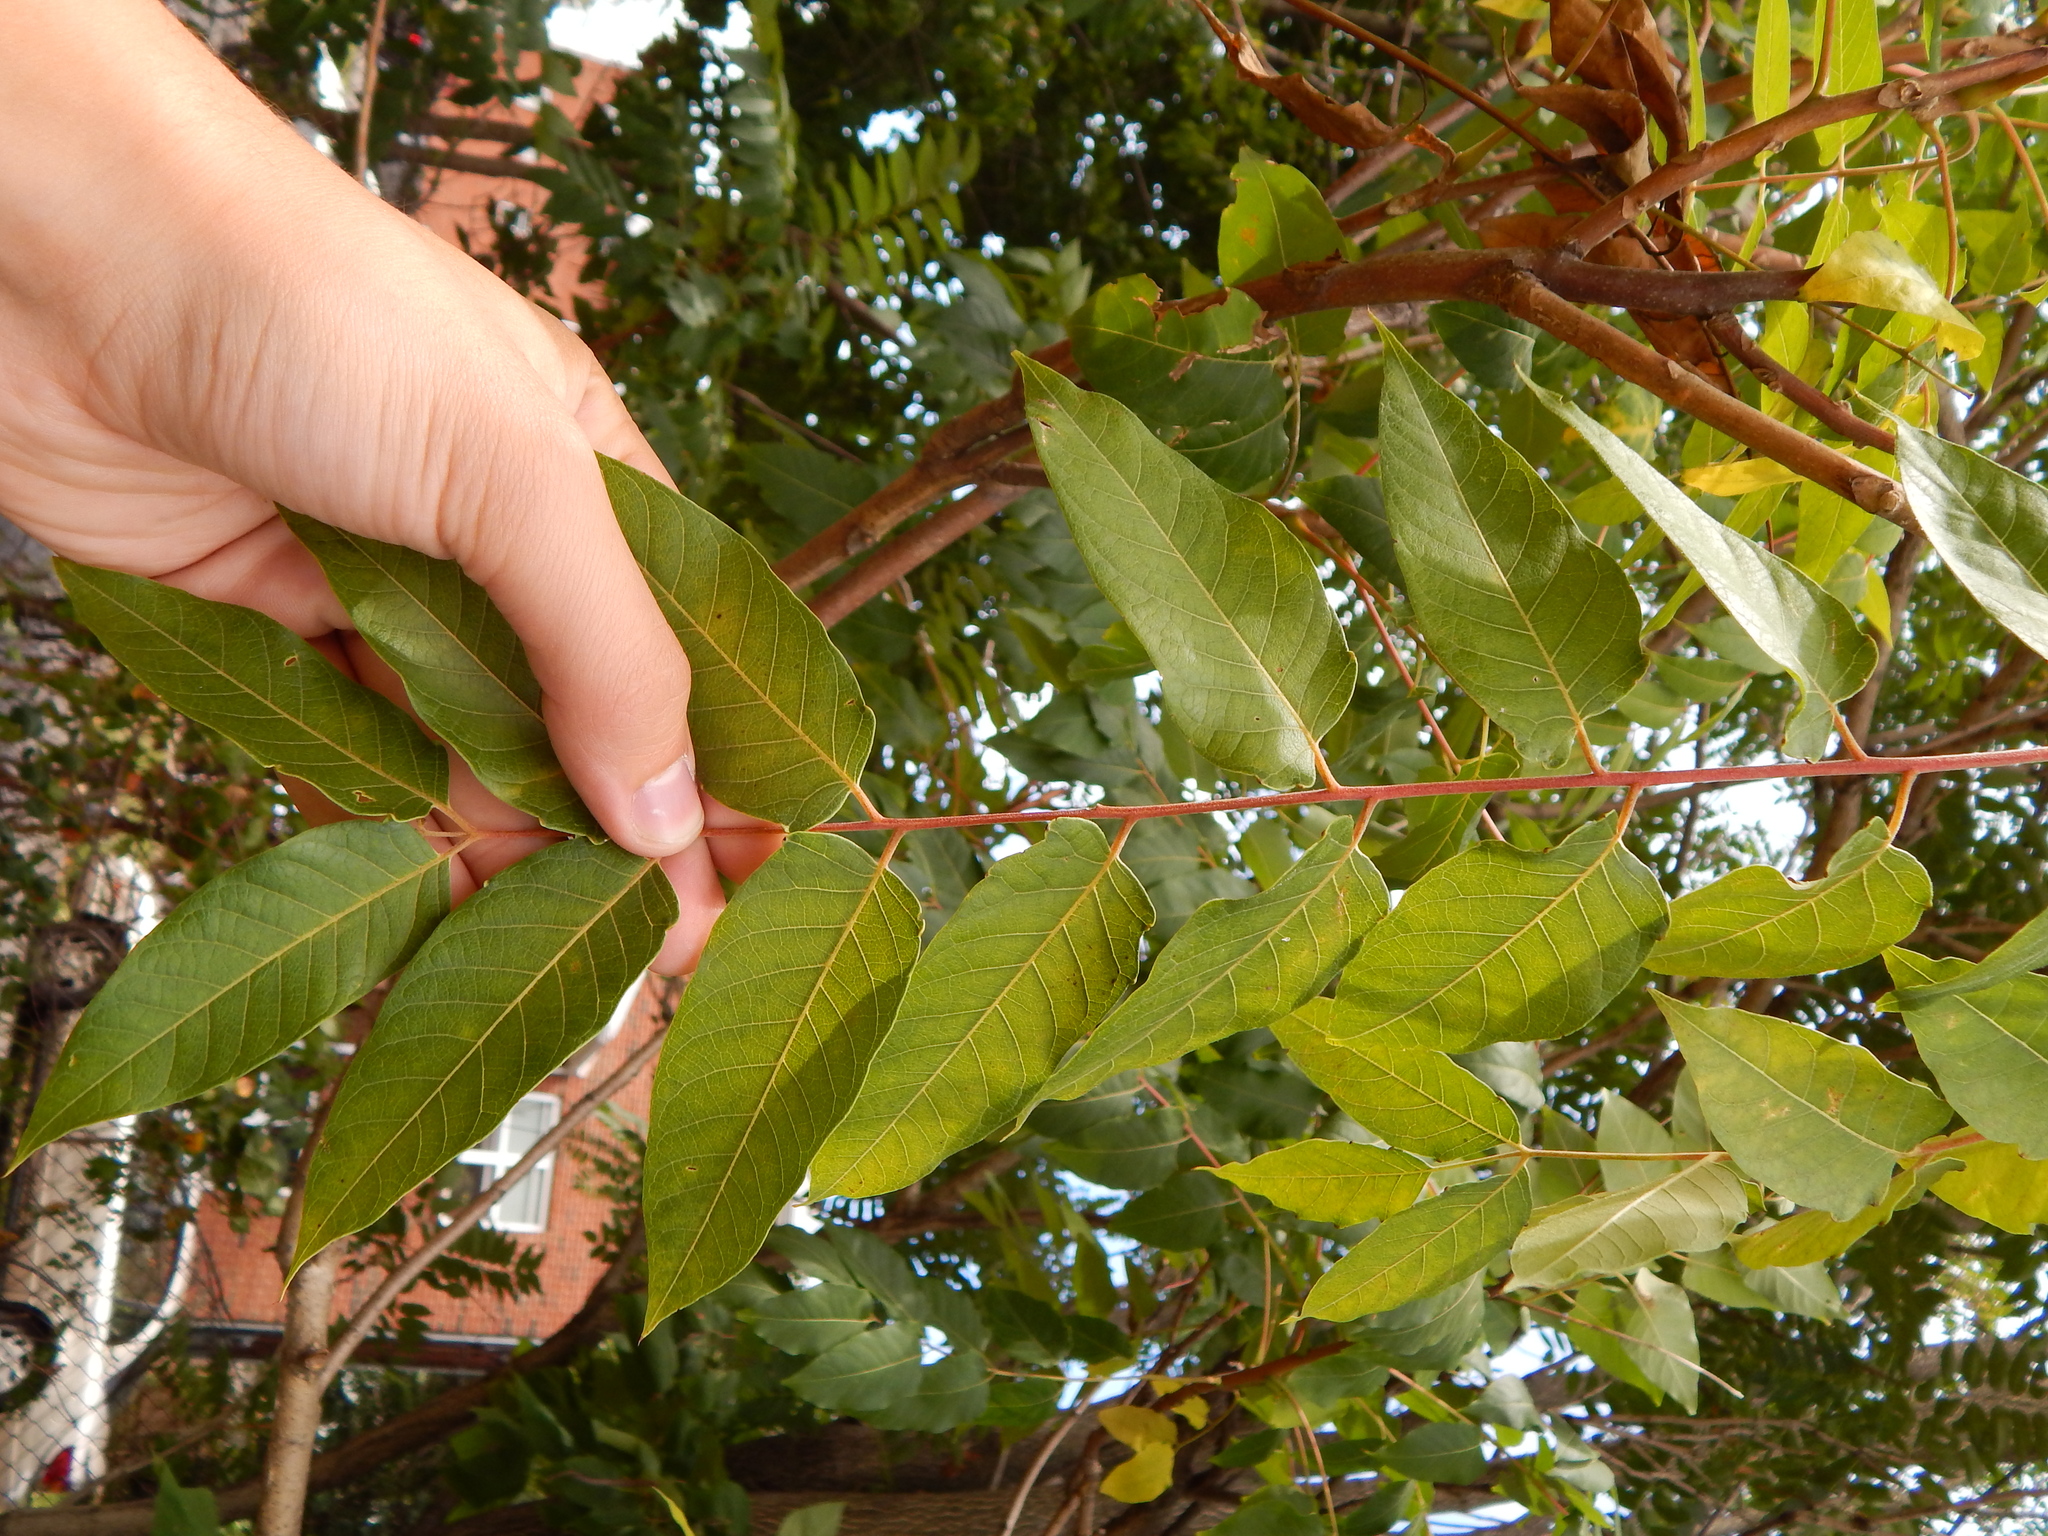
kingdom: Plantae
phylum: Tracheophyta
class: Magnoliopsida
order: Sapindales
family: Simaroubaceae
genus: Ailanthus
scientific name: Ailanthus altissima
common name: Tree-of-heaven
